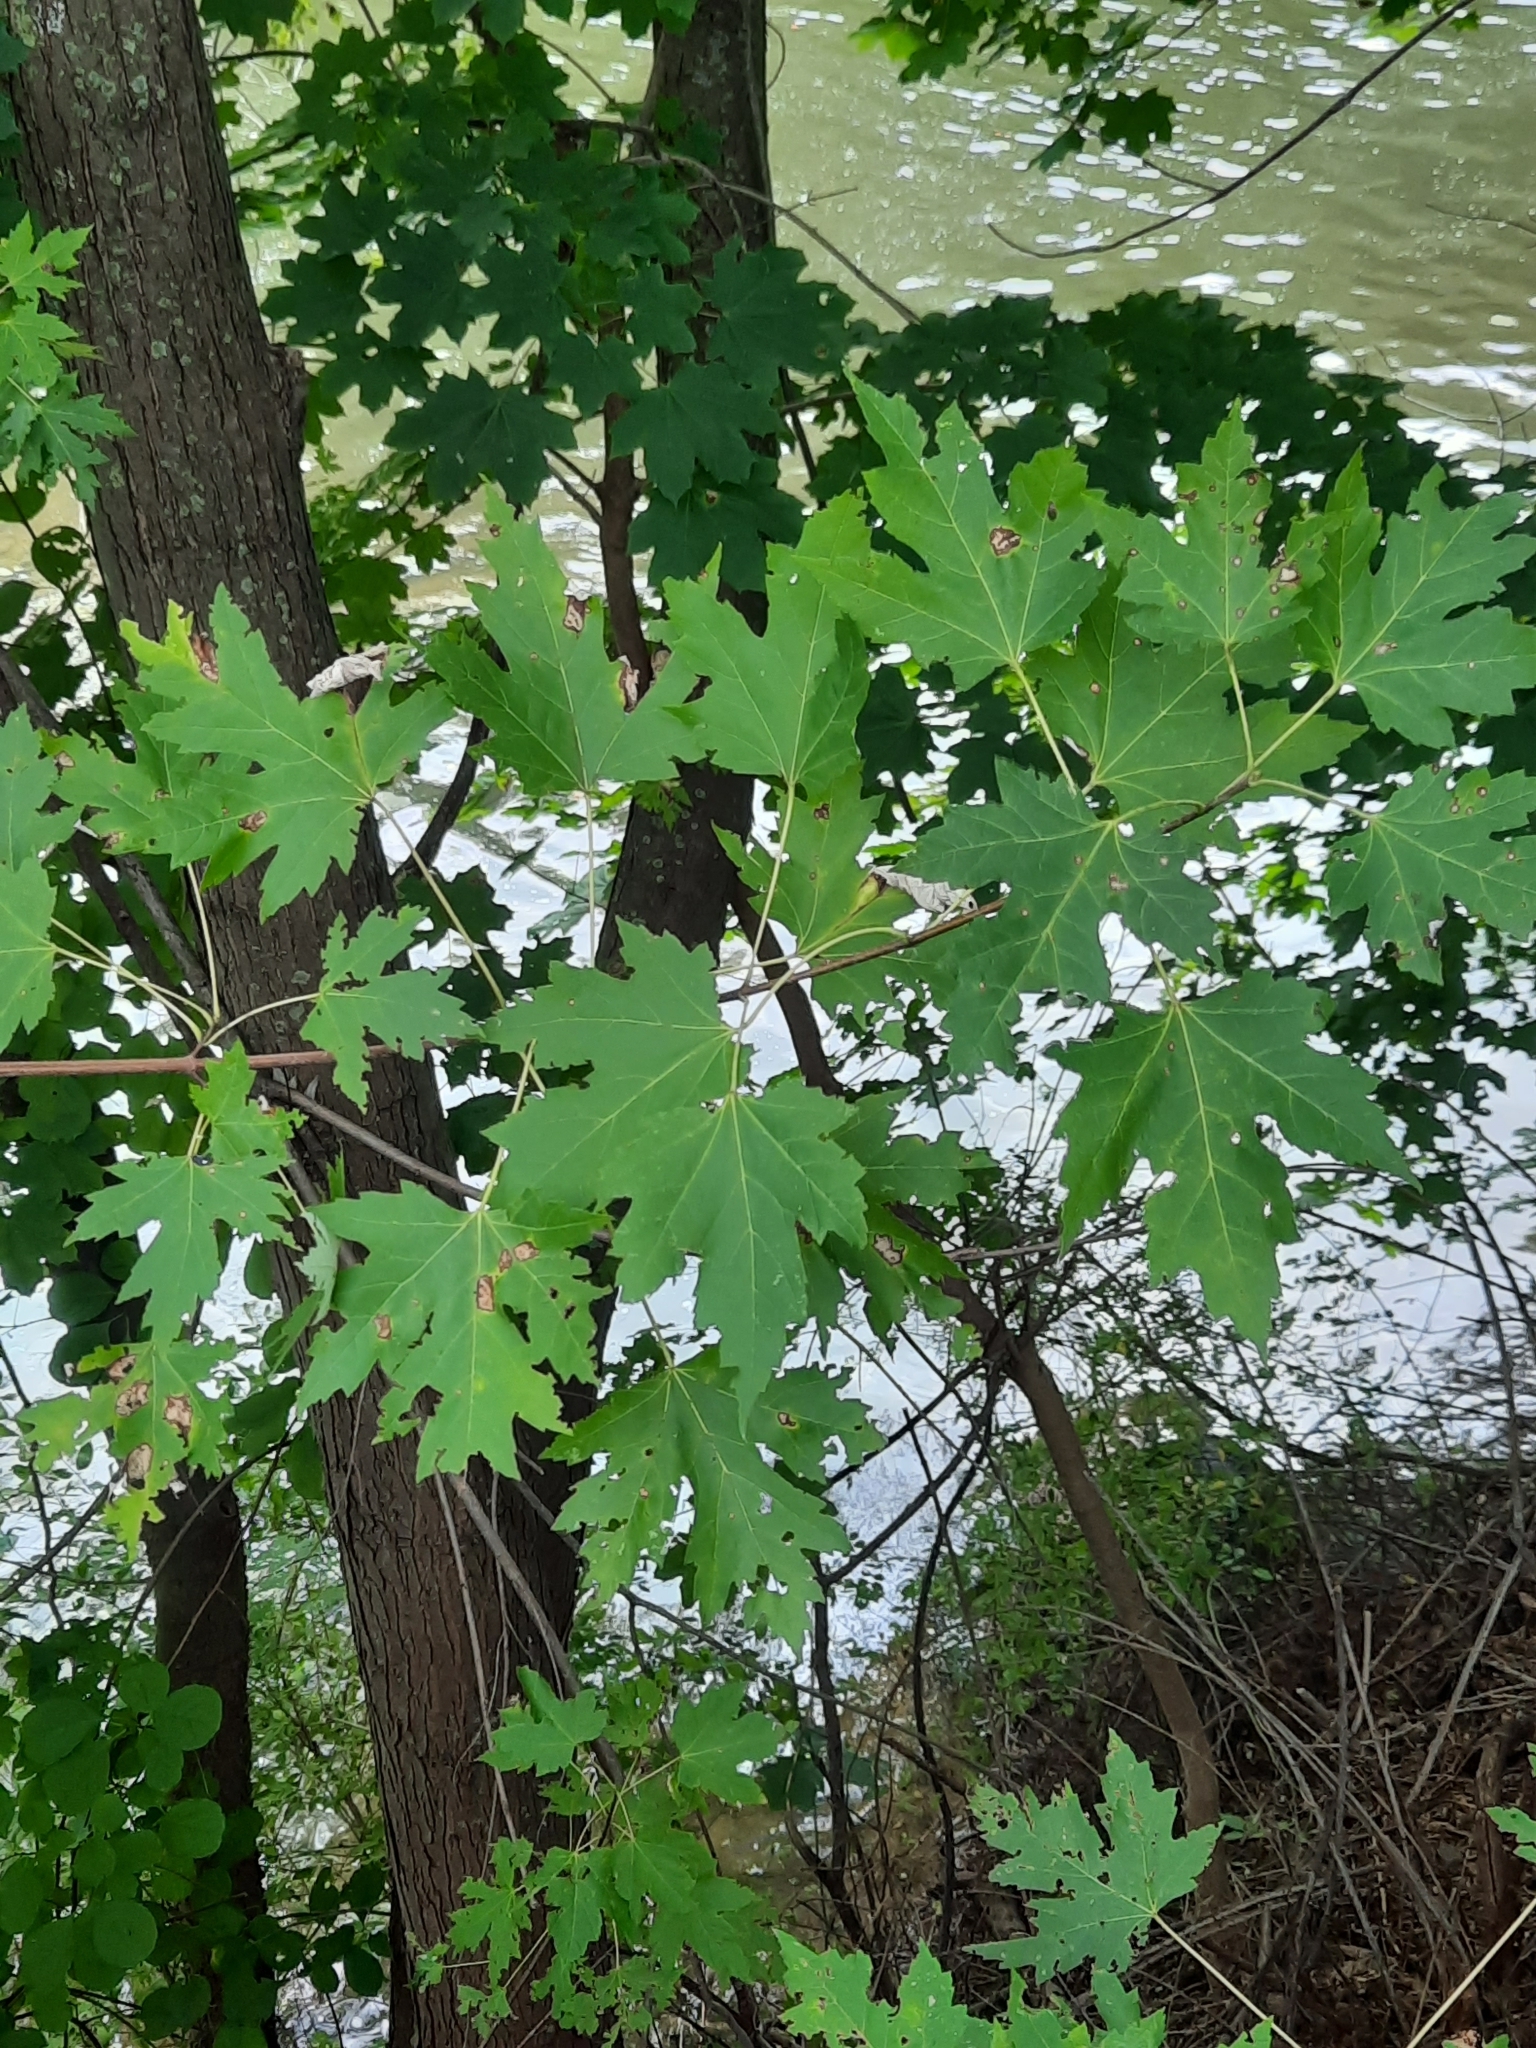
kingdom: Plantae
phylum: Tracheophyta
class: Magnoliopsida
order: Sapindales
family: Sapindaceae
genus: Acer
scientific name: Acer saccharinum
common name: Silver maple
